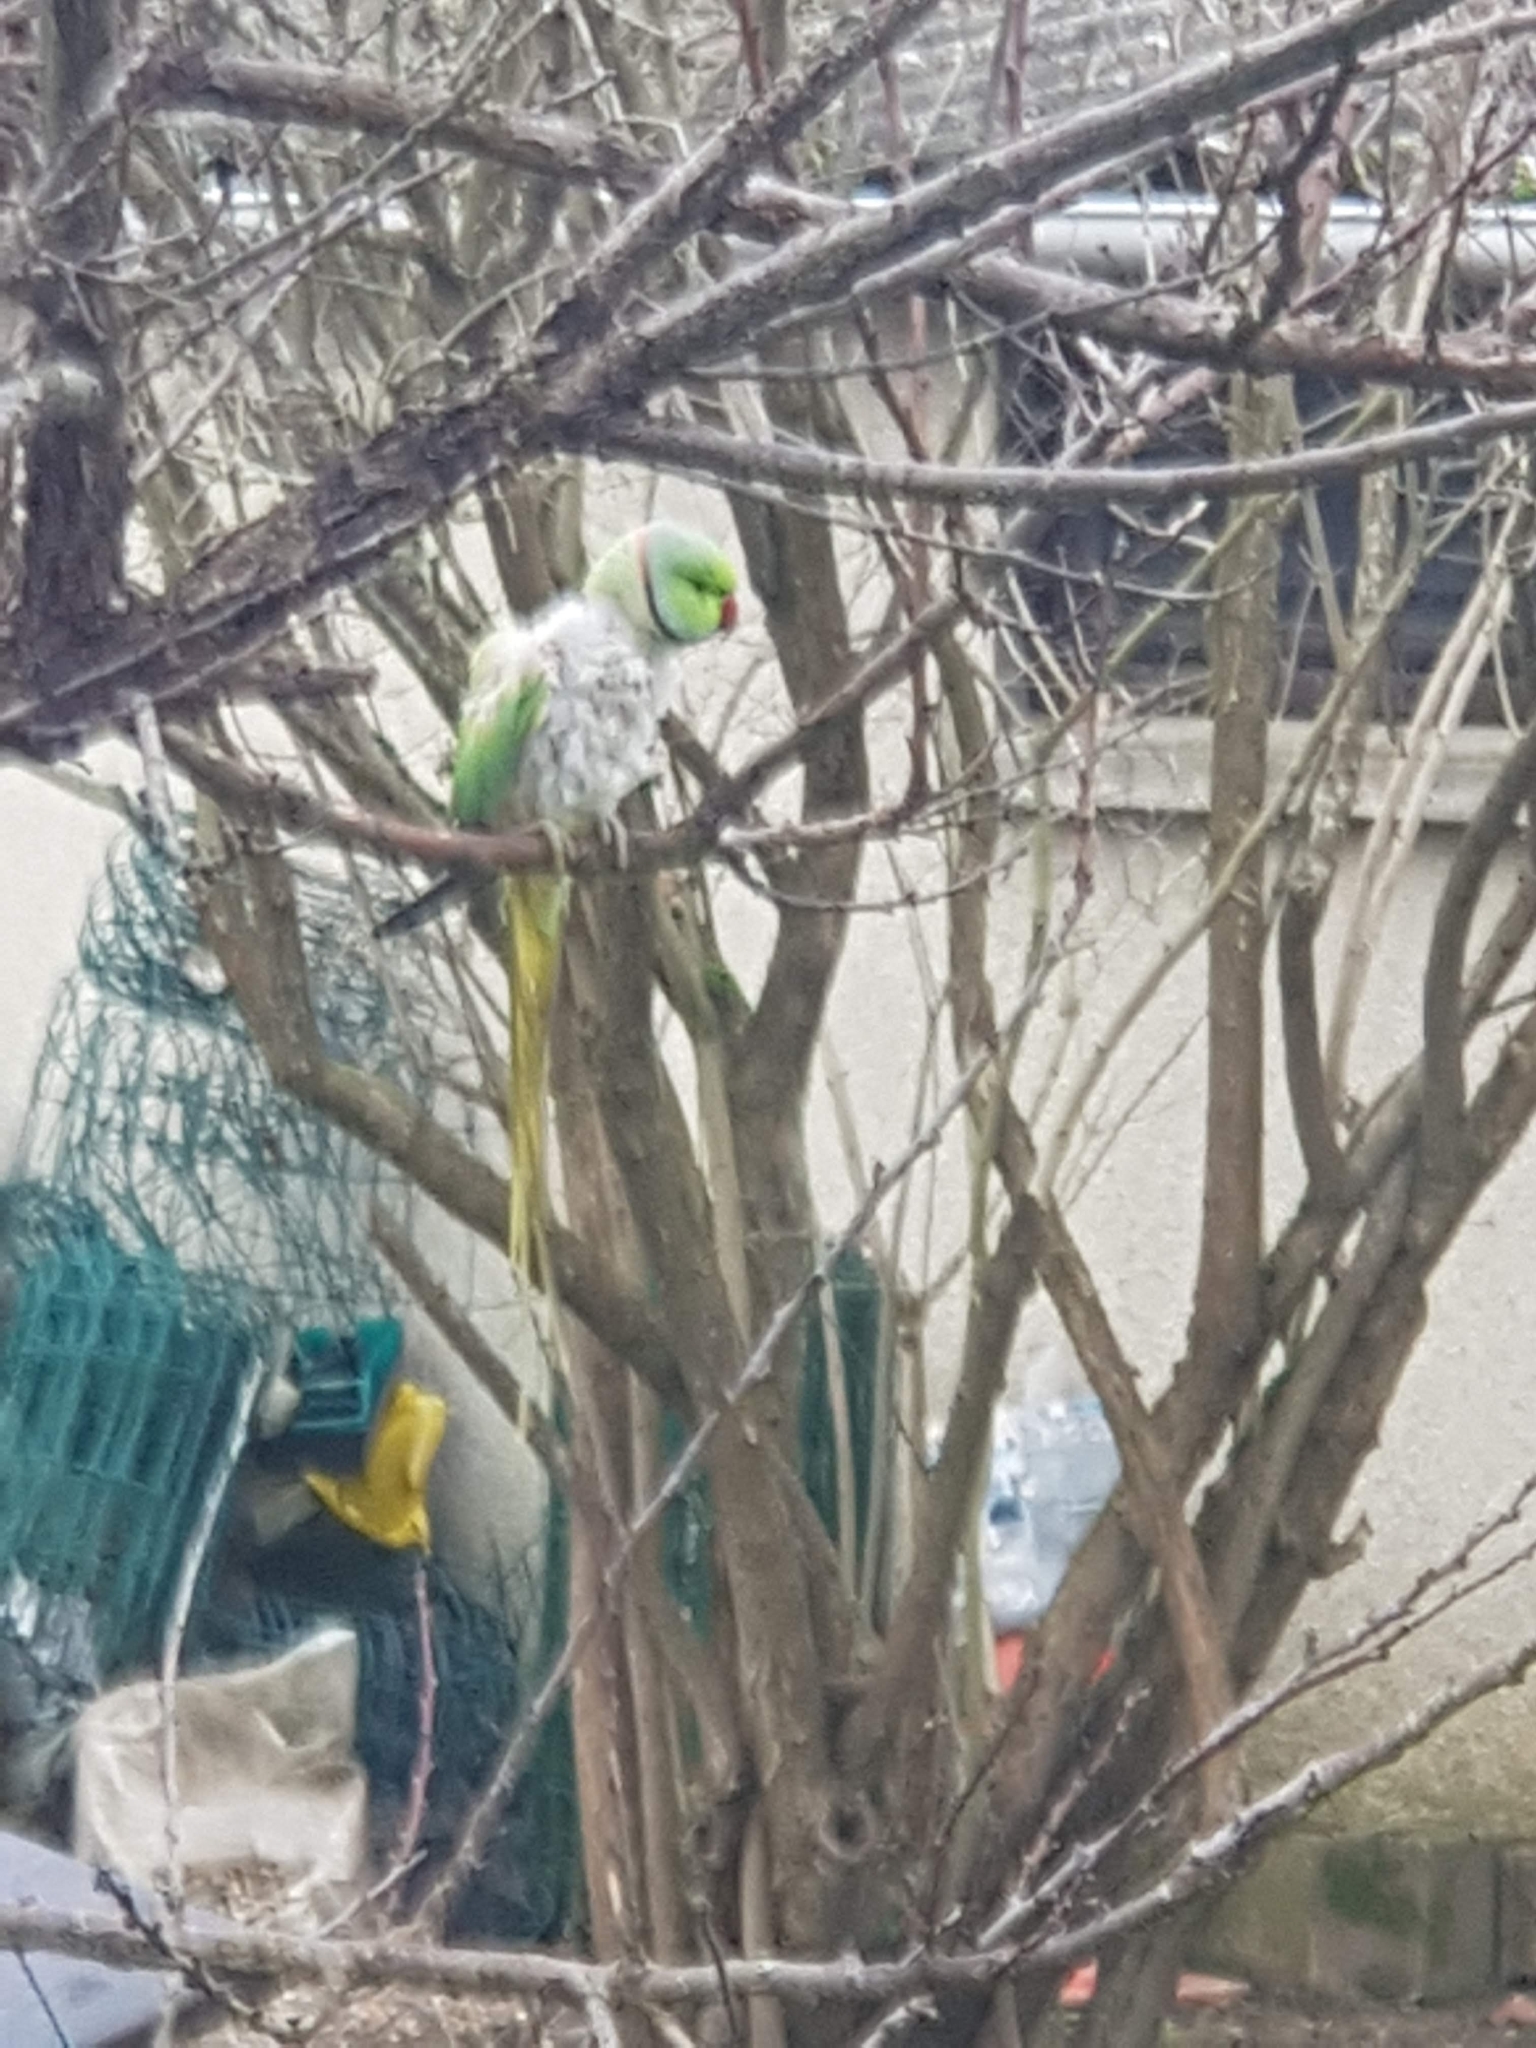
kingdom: Animalia
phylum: Chordata
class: Aves
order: Psittaciformes
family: Psittacidae
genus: Psittacula
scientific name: Psittacula krameri
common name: Rose-ringed parakeet
